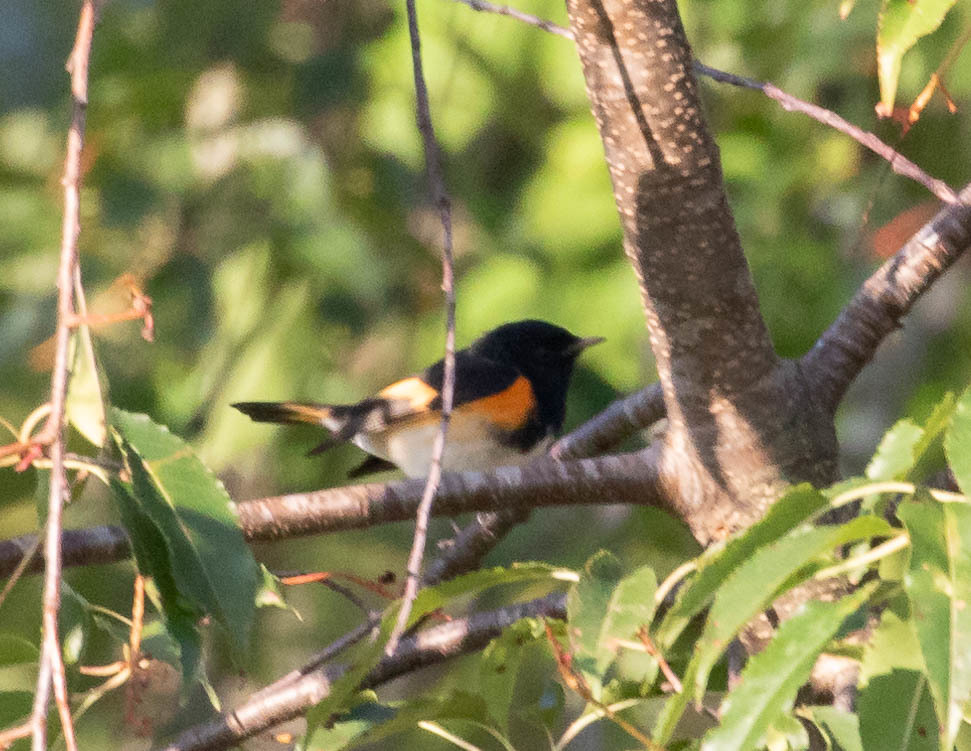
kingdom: Animalia
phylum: Chordata
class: Aves
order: Passeriformes
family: Parulidae
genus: Setophaga
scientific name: Setophaga ruticilla
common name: American redstart
